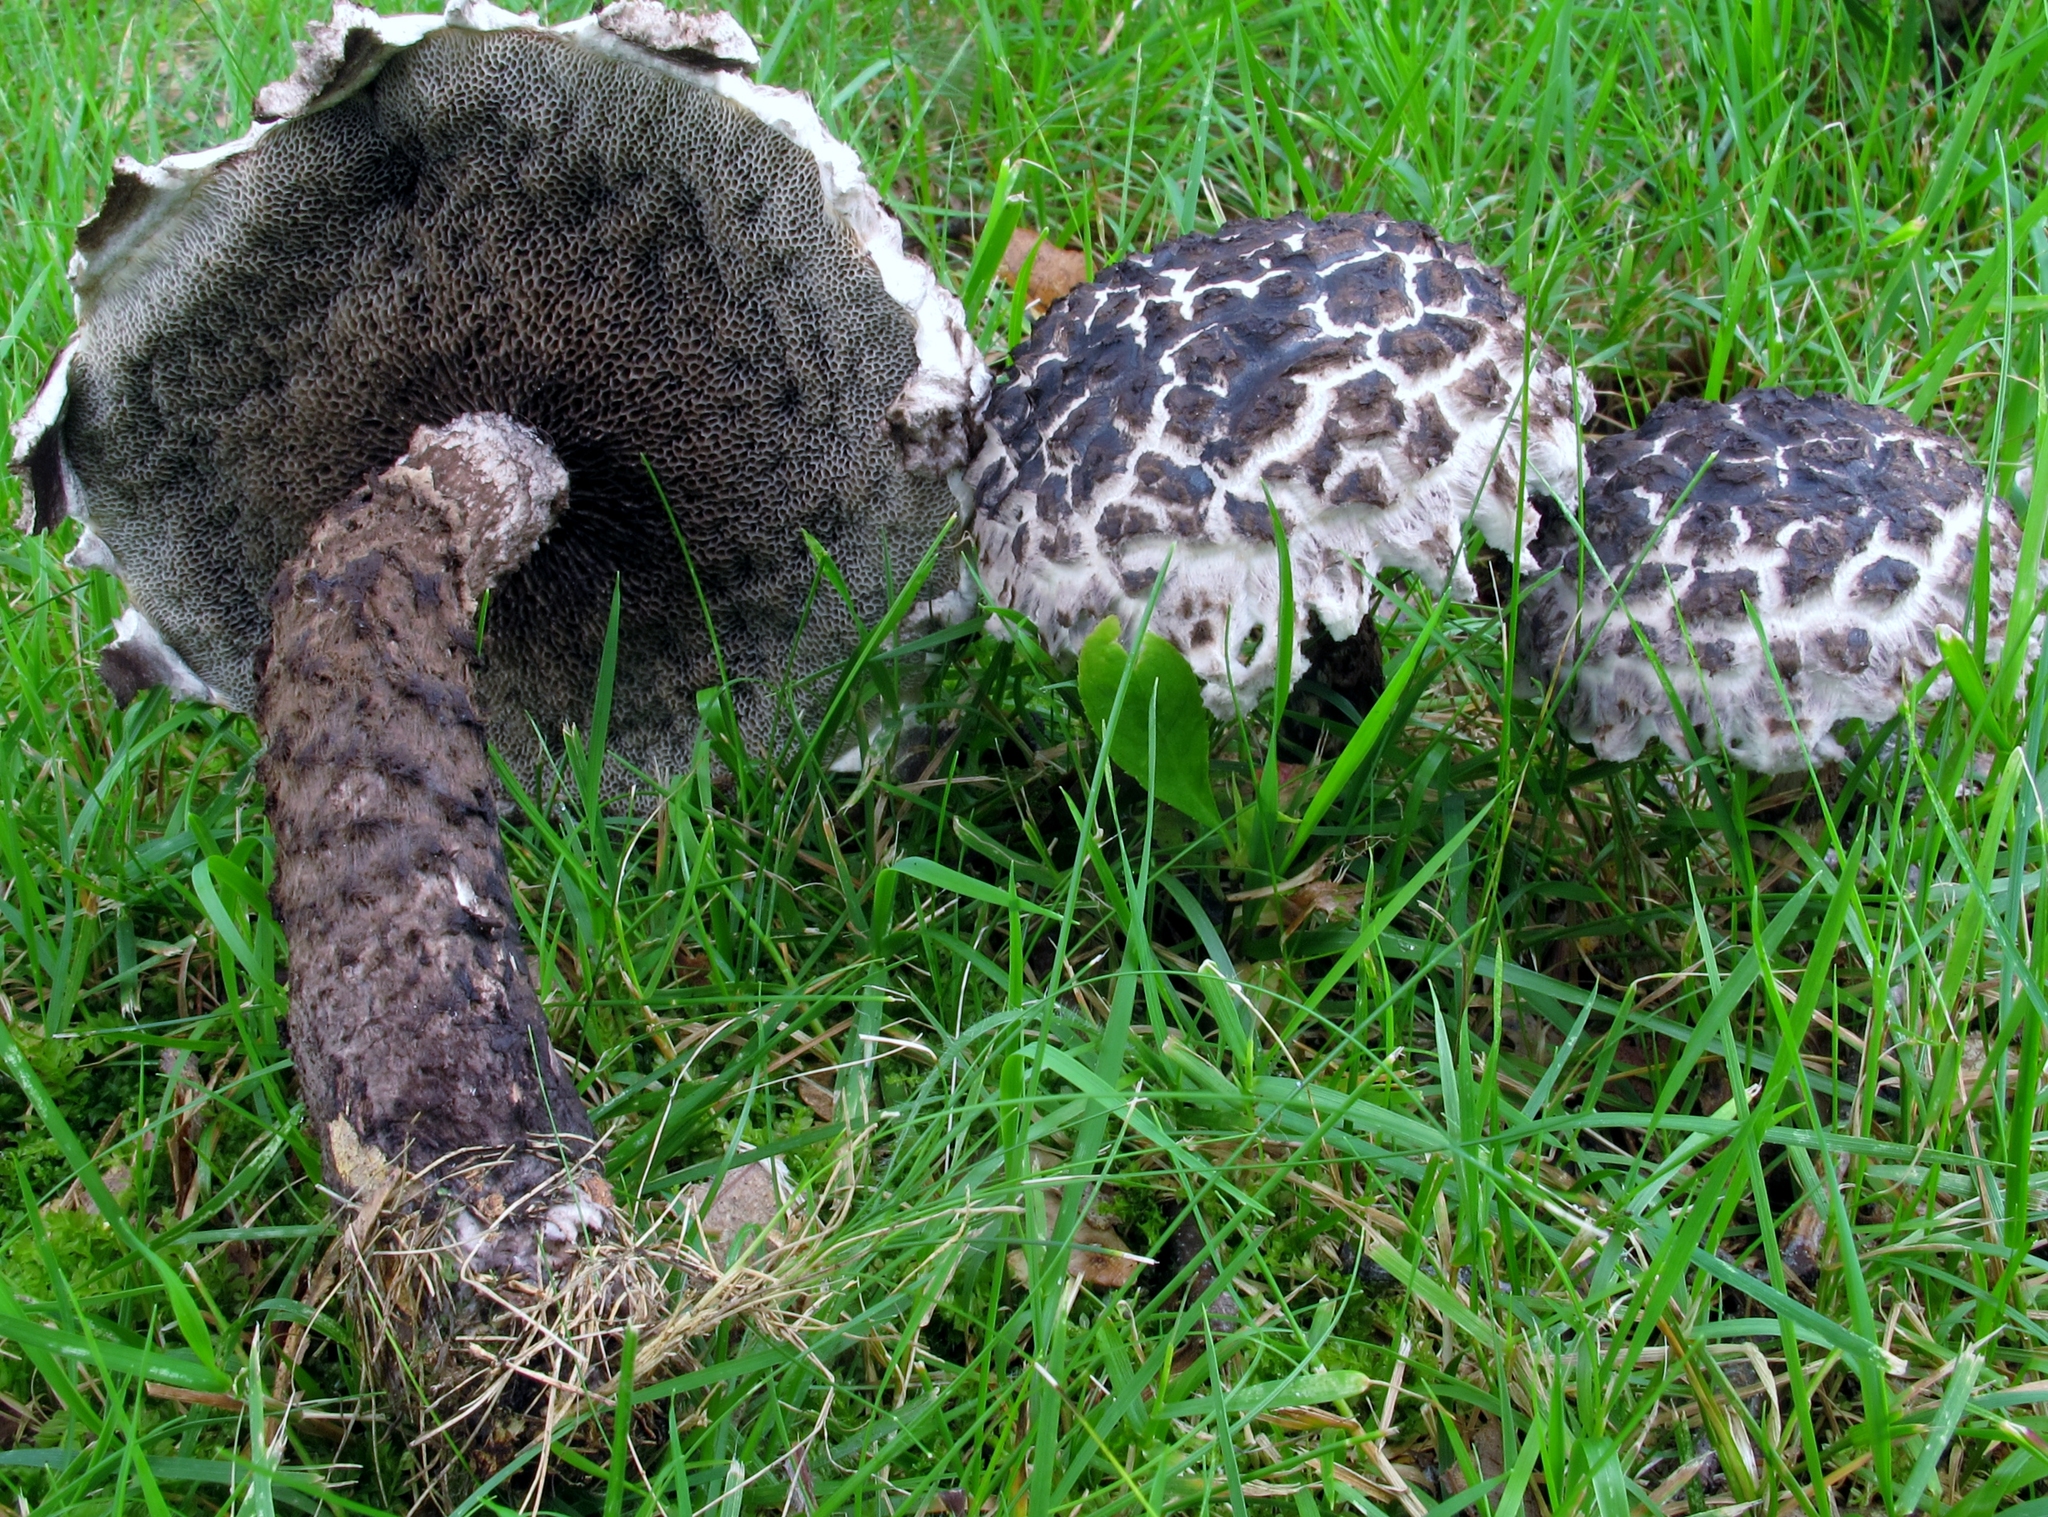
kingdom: Fungi
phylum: Basidiomycota
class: Agaricomycetes
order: Boletales
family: Boletaceae
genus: Strobilomyces
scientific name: Strobilomyces strobilaceus
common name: Old man of the woods
